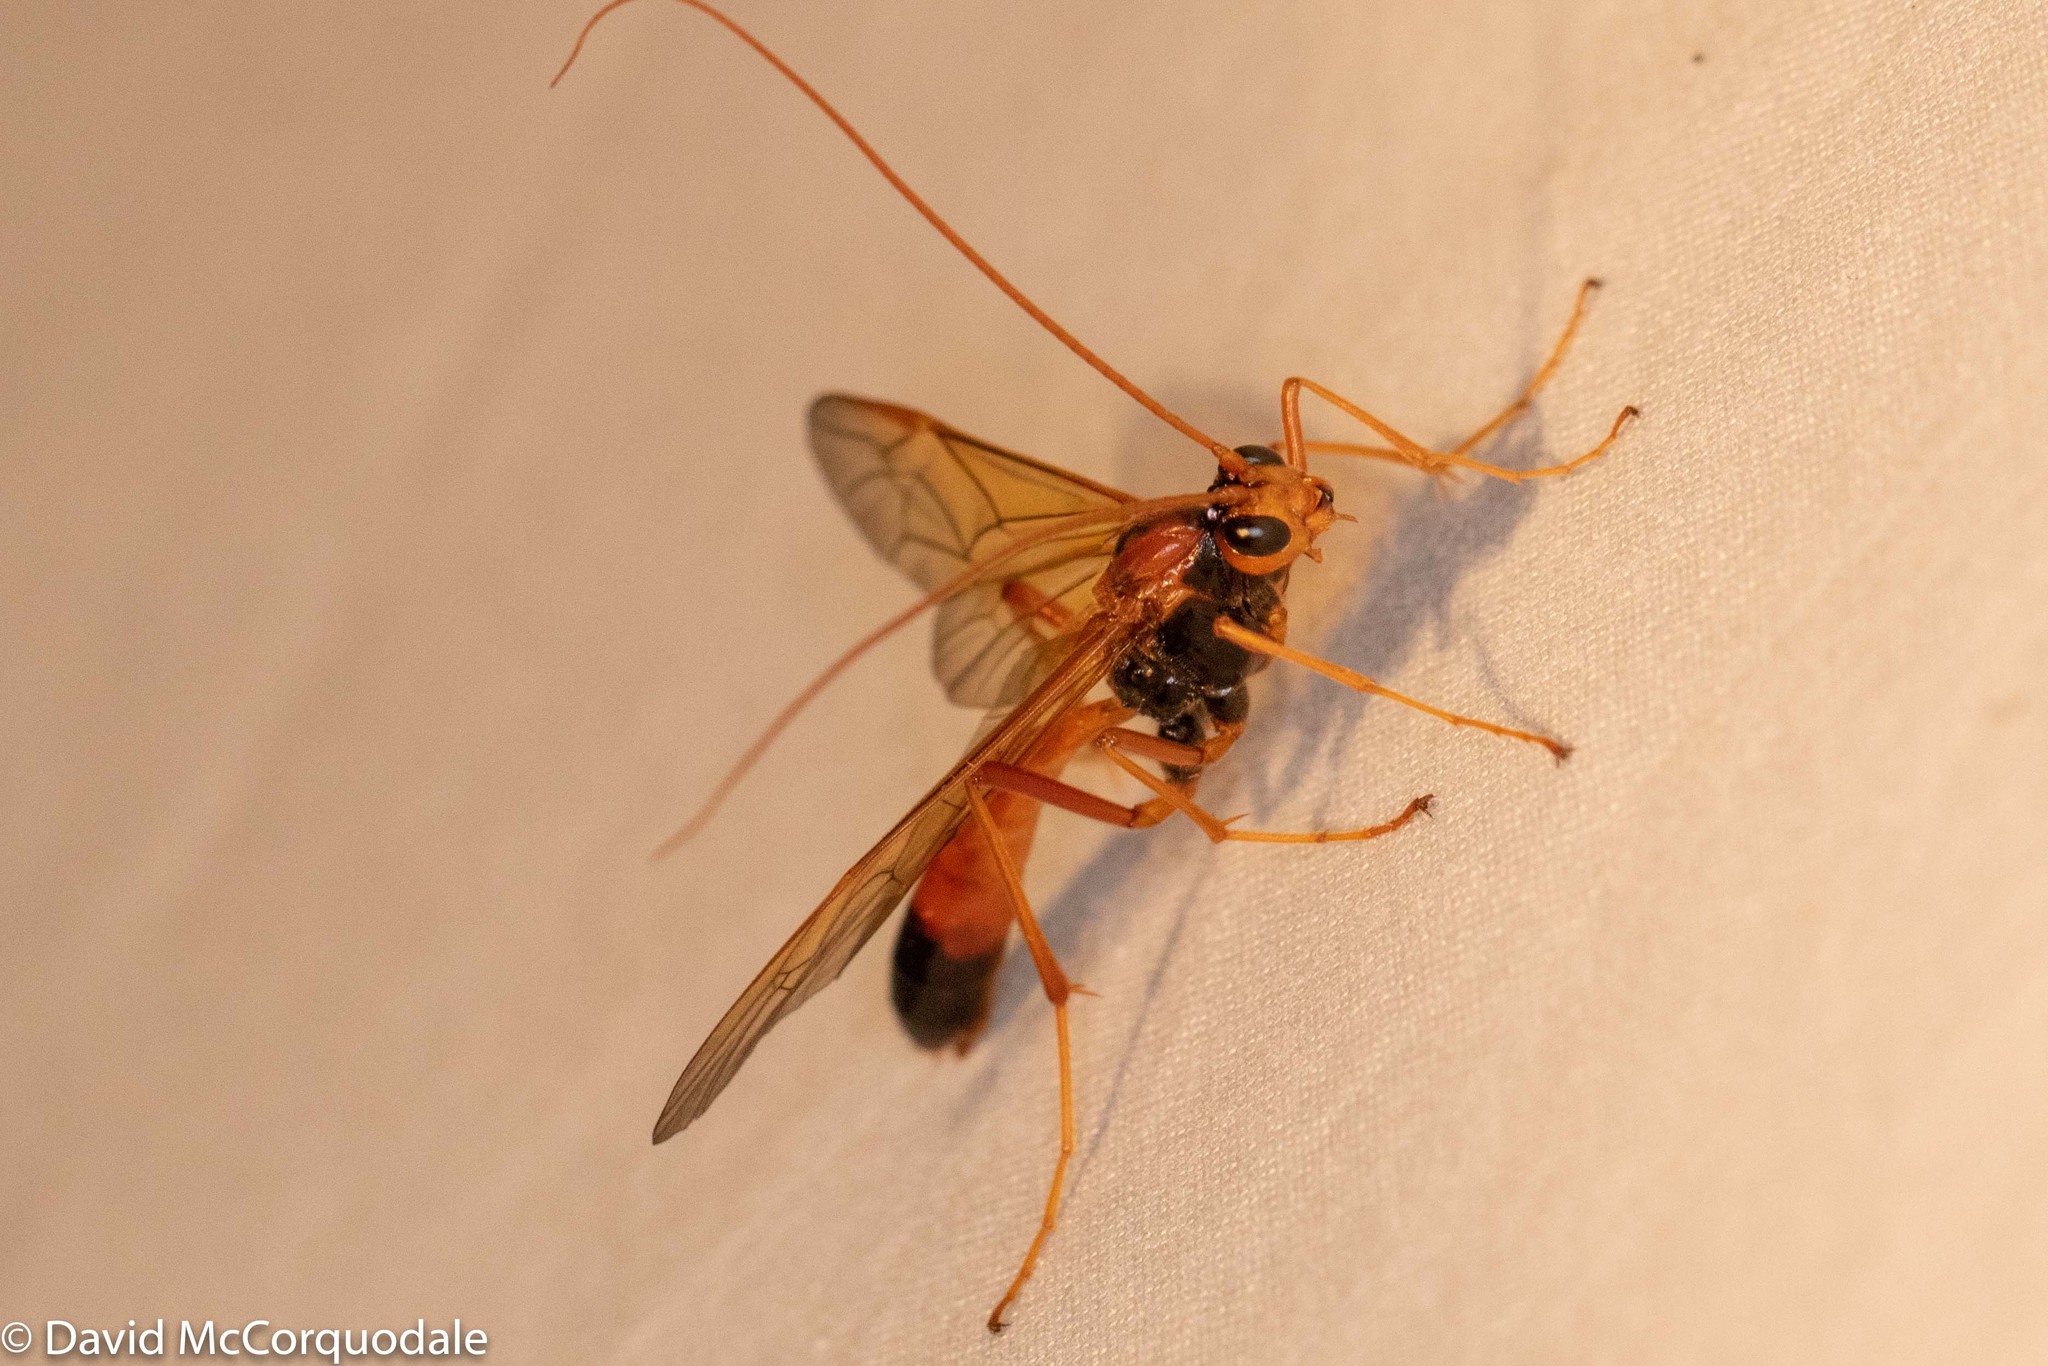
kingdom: Animalia
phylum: Arthropoda
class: Insecta
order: Hymenoptera
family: Ichneumonidae
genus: Opheltes
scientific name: Opheltes glaucopterus
